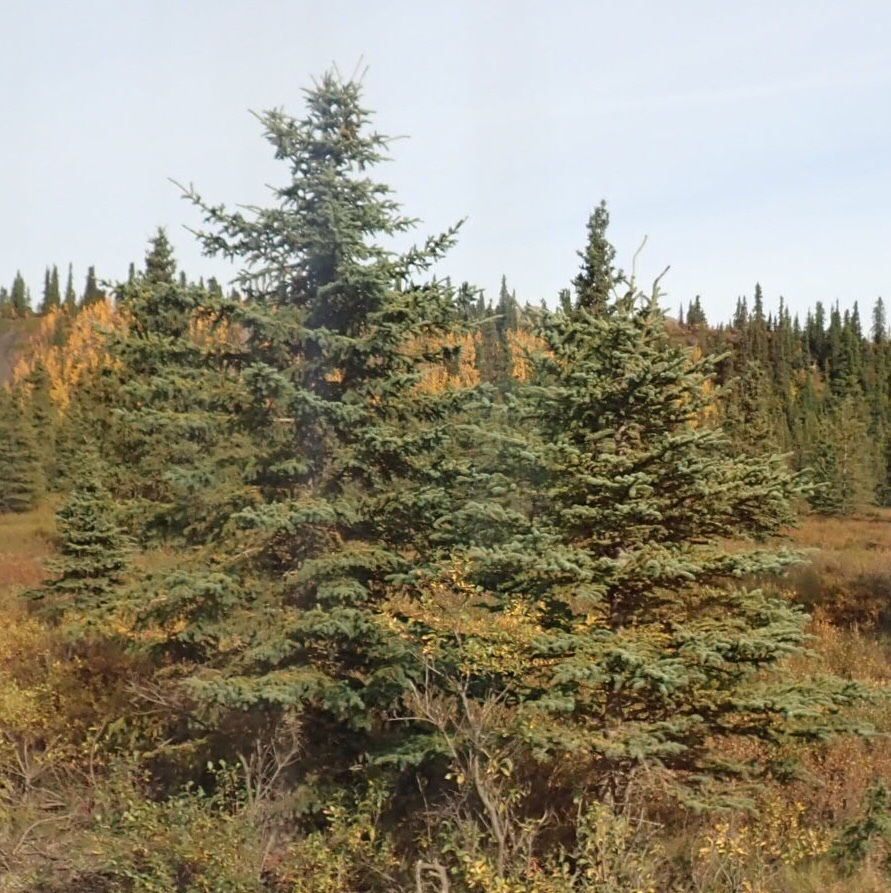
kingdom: Plantae
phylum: Tracheophyta
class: Pinopsida
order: Pinales
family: Pinaceae
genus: Picea
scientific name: Picea glauca
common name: White spruce
